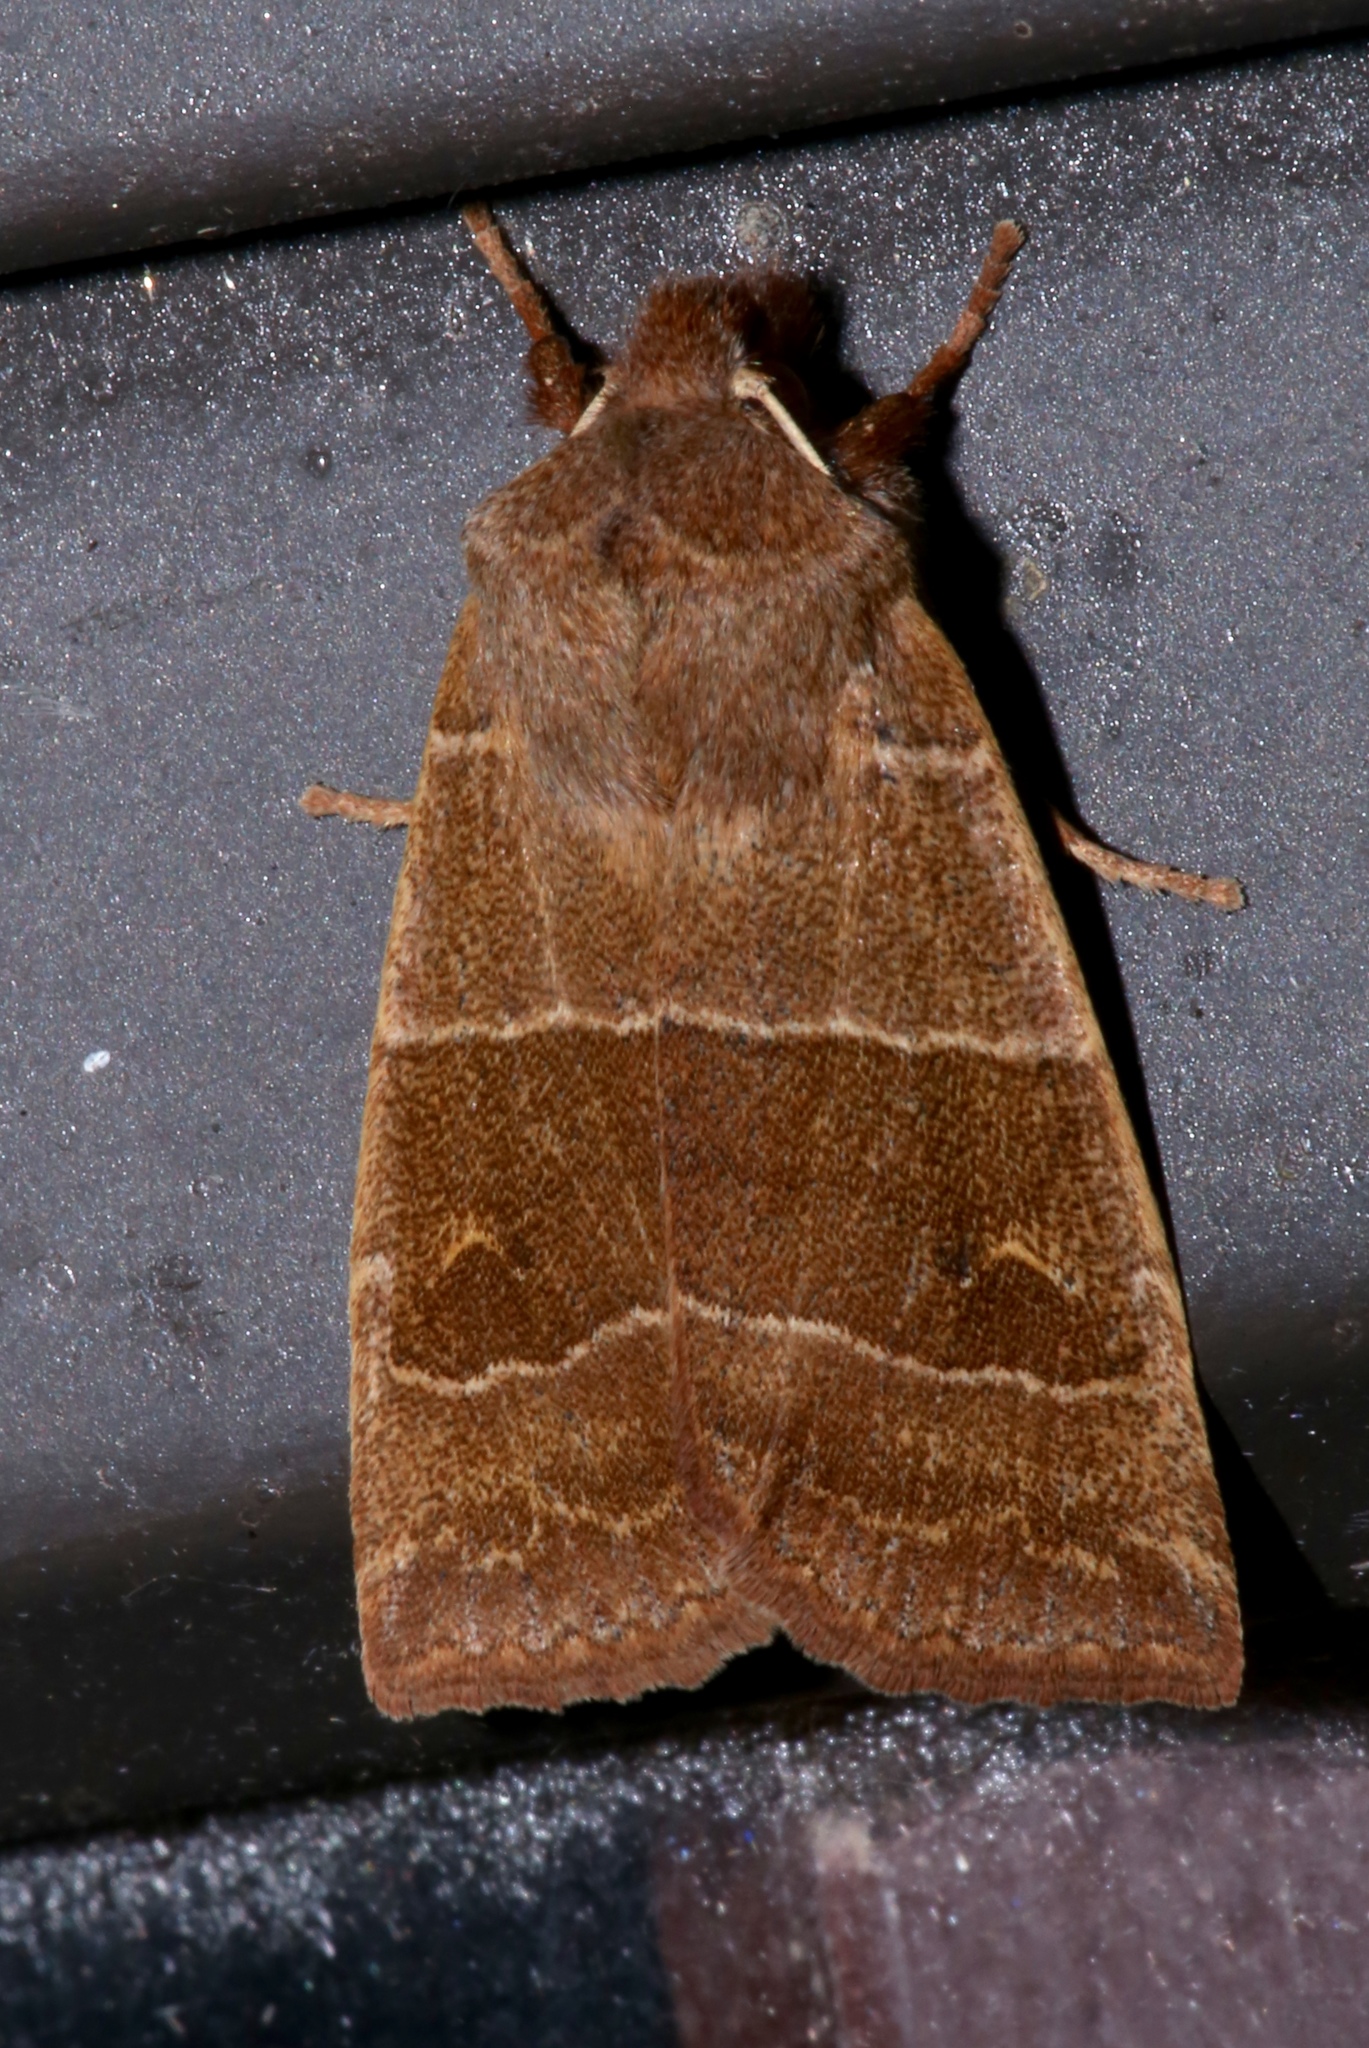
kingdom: Animalia
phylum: Arthropoda
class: Insecta
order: Lepidoptera
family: Noctuidae
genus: Eupsilia
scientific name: Eupsilia morrisoni
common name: Morrison's sallow
